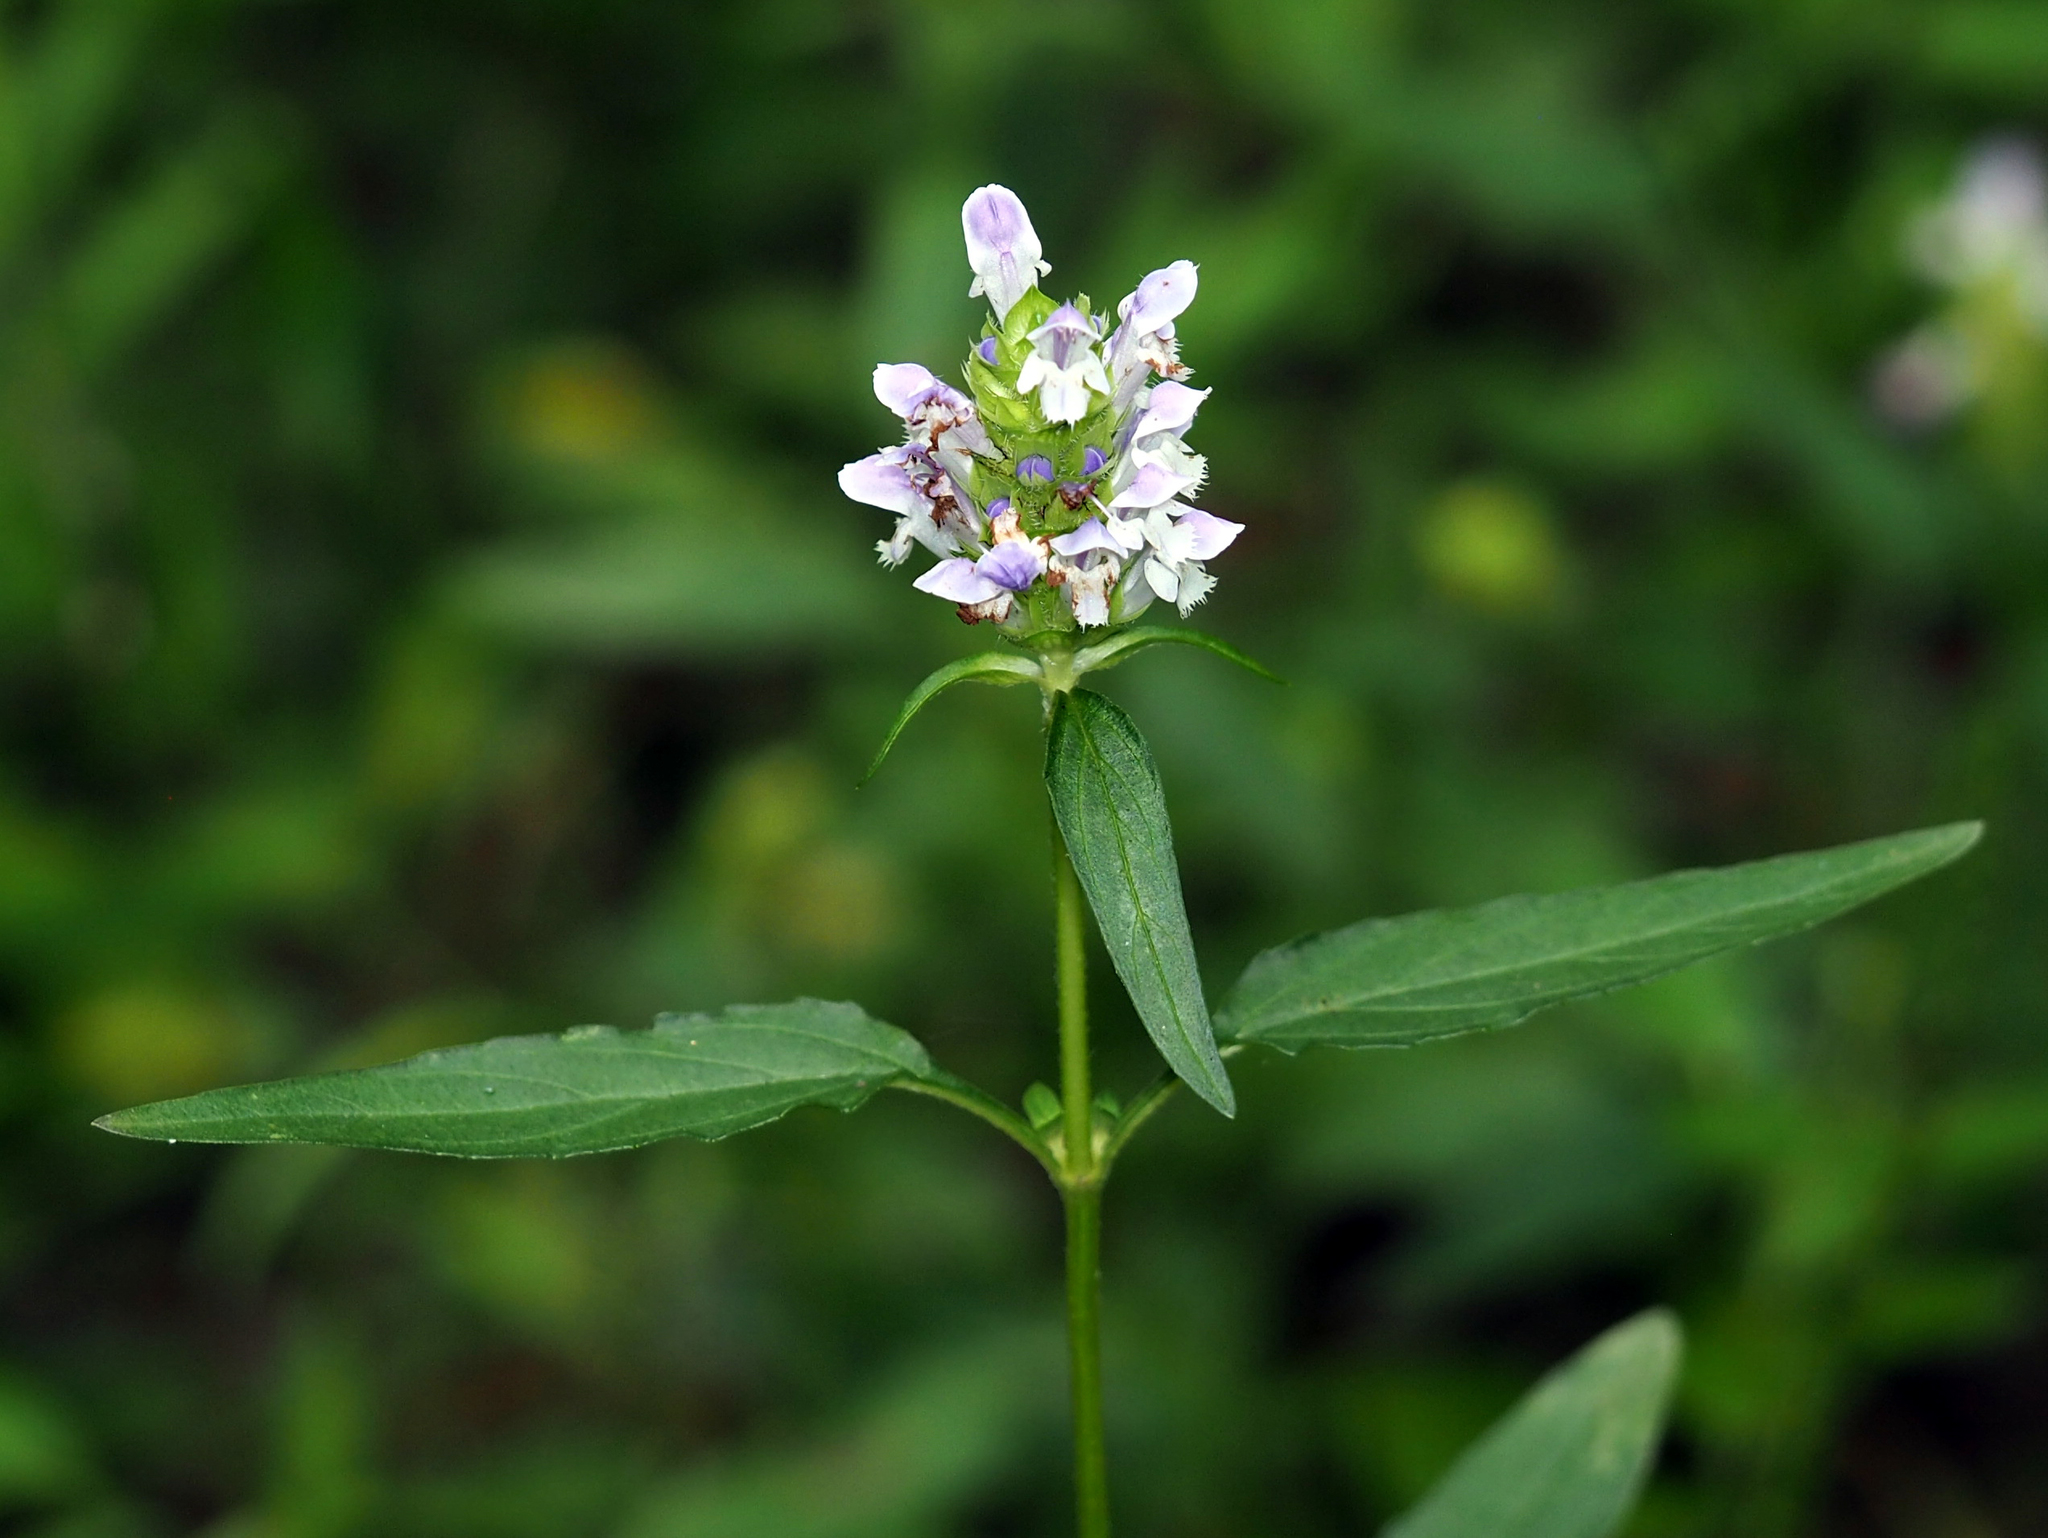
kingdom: Plantae
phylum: Tracheophyta
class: Magnoliopsida
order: Lamiales
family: Lamiaceae
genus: Prunella
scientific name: Prunella vulgaris
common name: Heal-all
